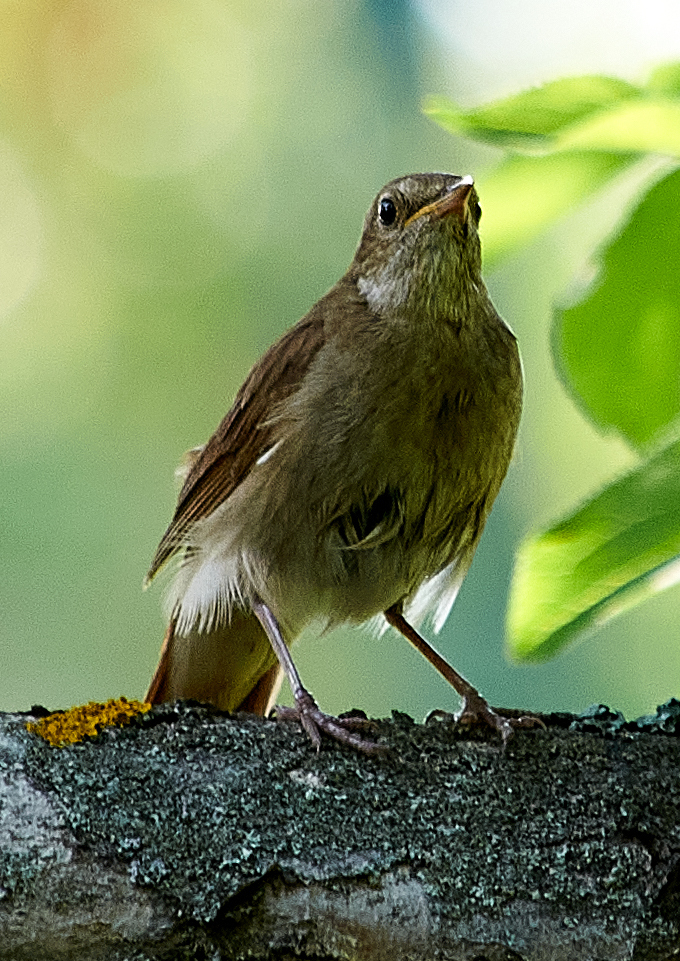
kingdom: Animalia
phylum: Chordata
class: Aves
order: Passeriformes
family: Muscicapidae
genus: Luscinia
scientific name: Luscinia luscinia
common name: Thrush nightingale
